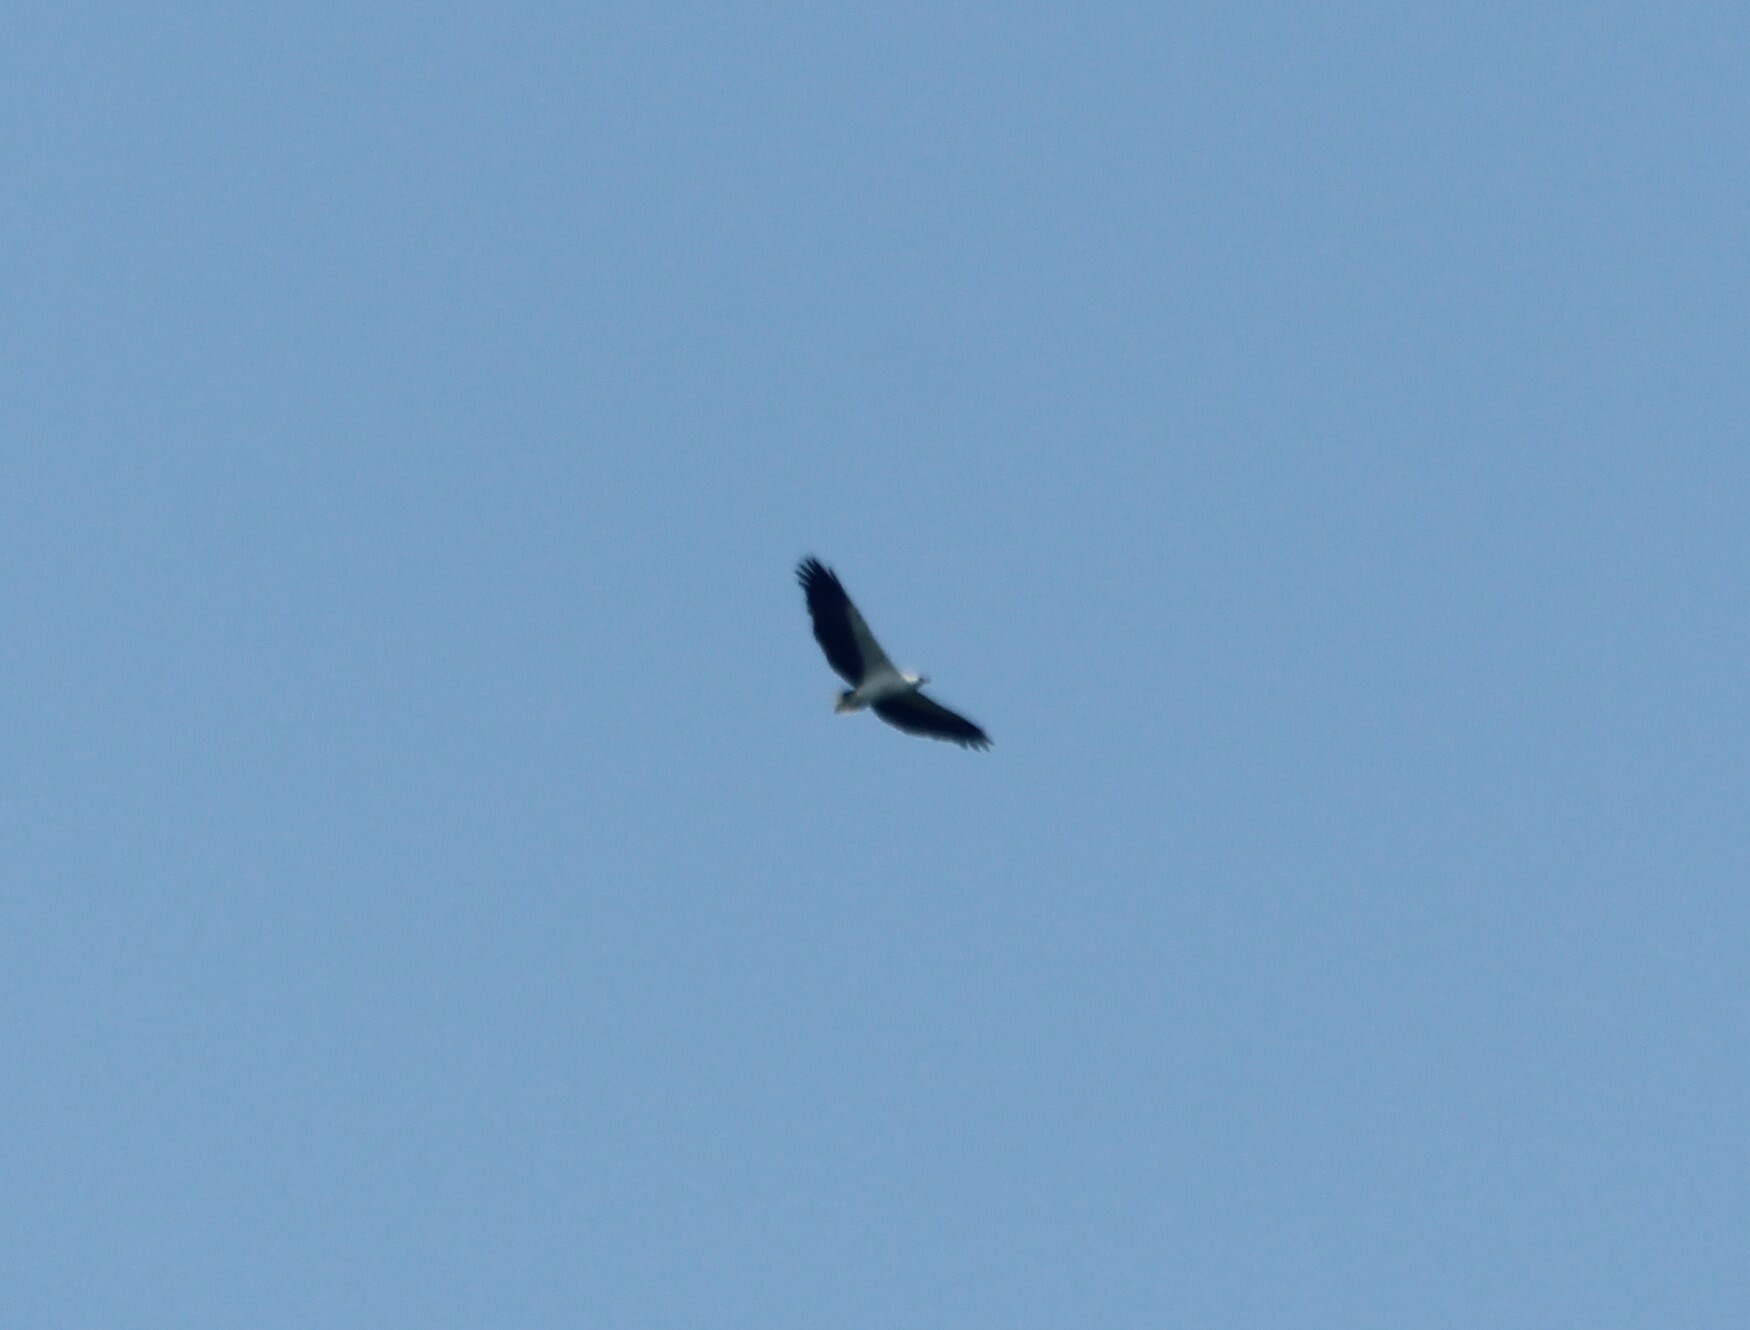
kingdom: Animalia
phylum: Chordata
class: Aves
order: Accipitriformes
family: Accipitridae
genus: Haliaeetus
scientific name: Haliaeetus leucogaster
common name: White-bellied sea eagle
